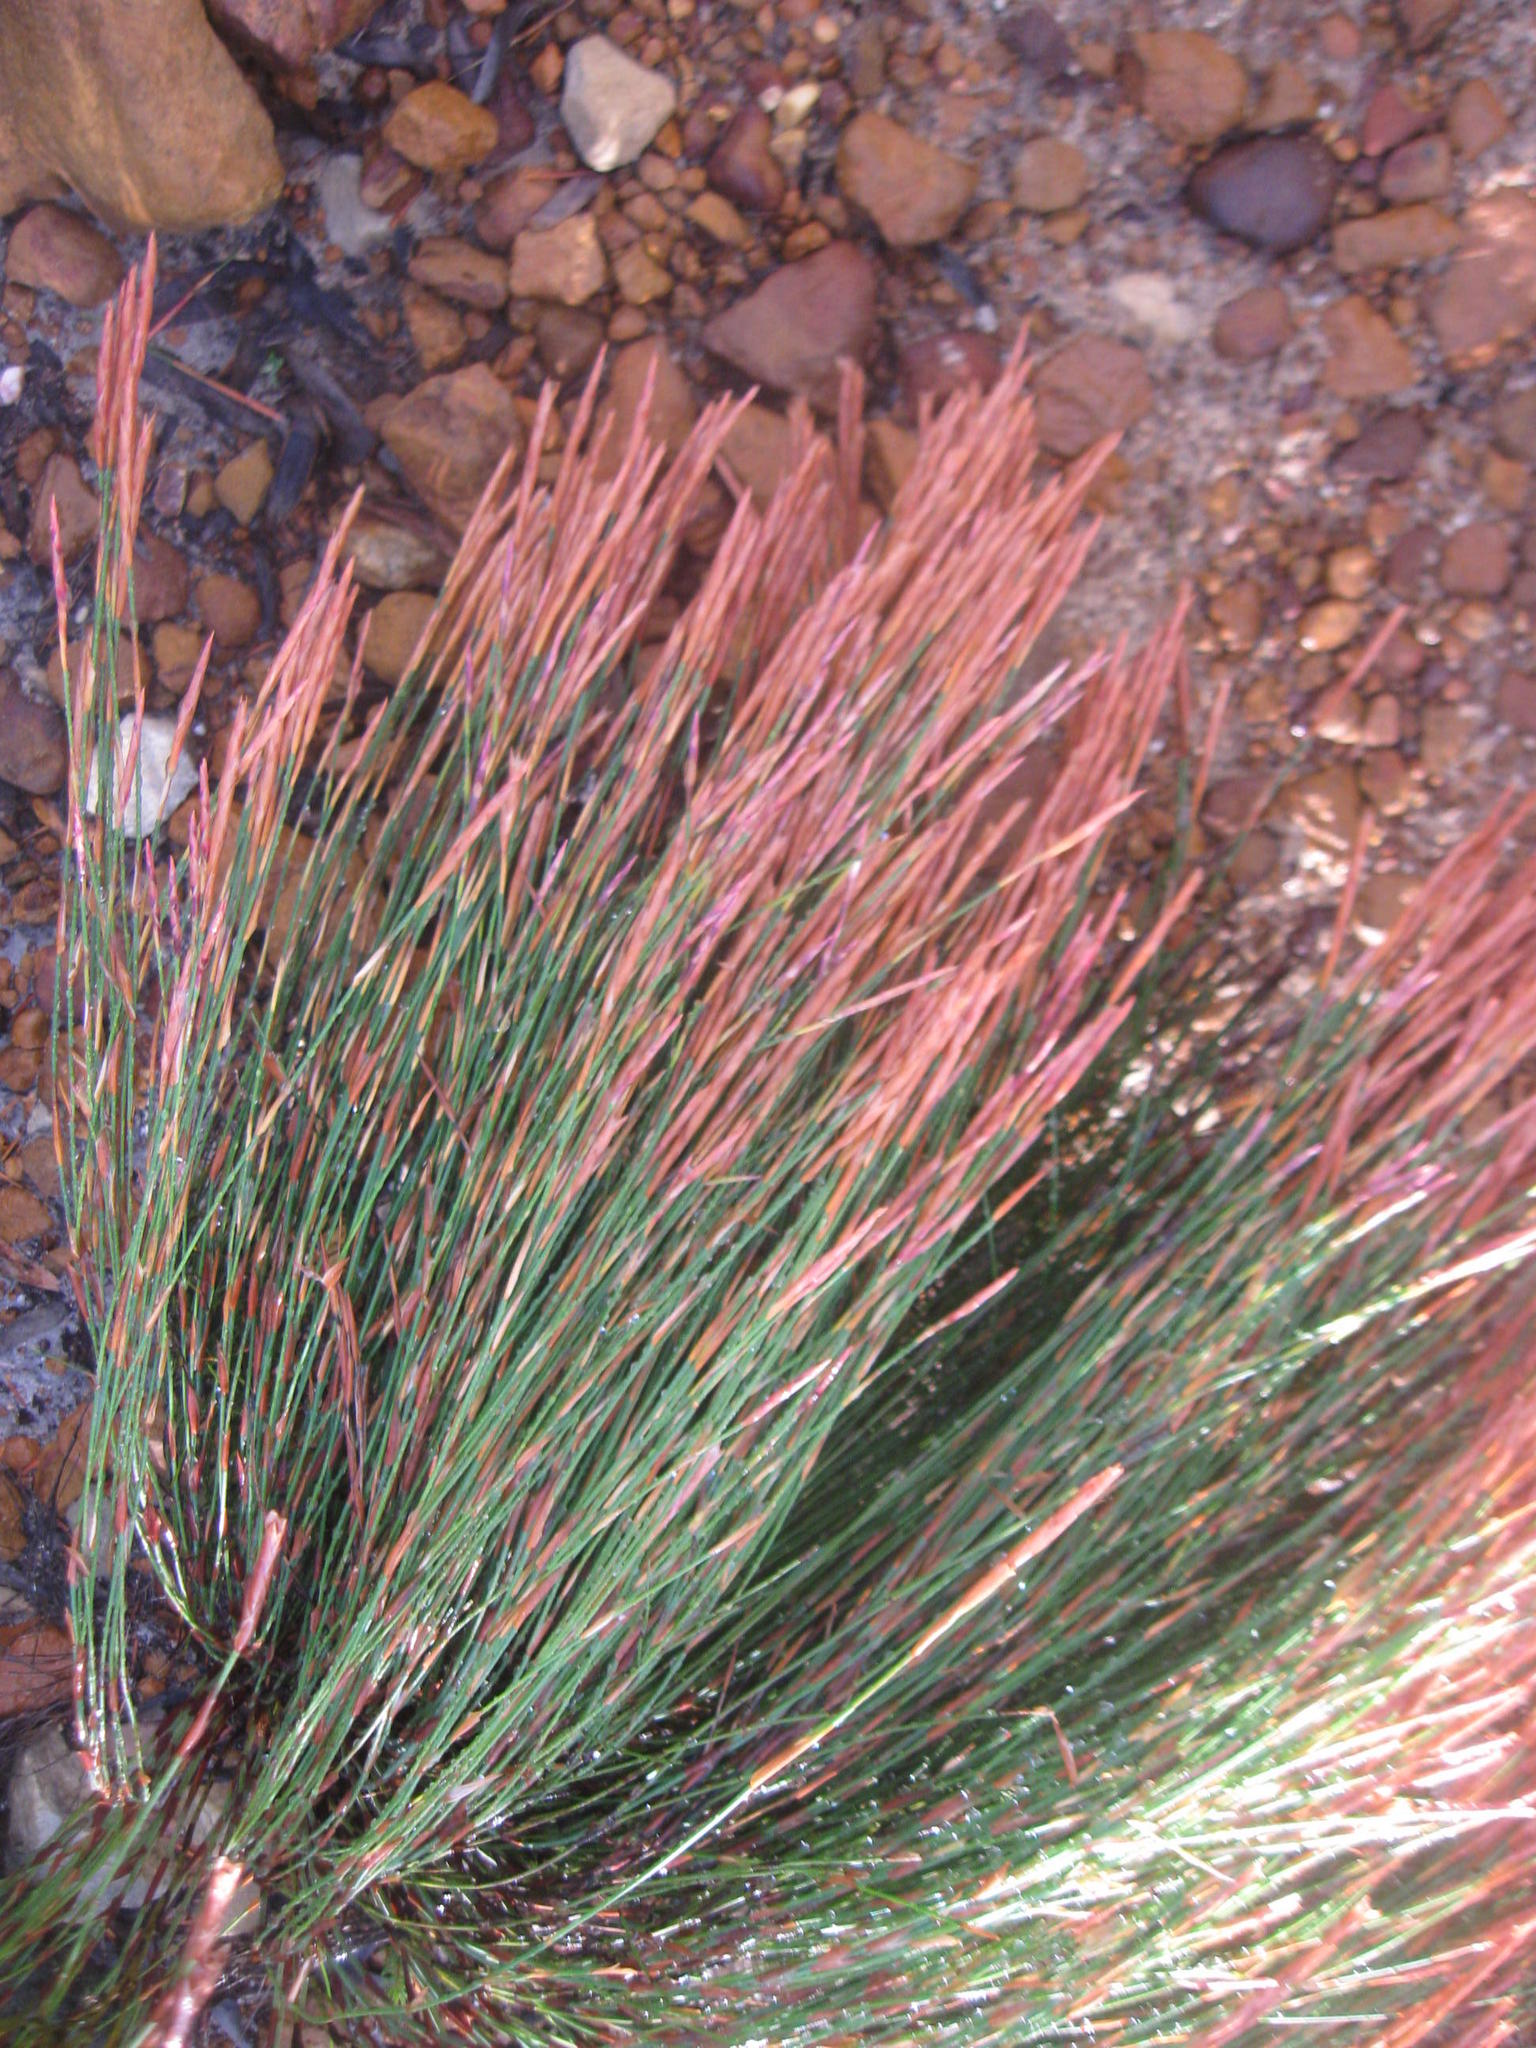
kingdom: Plantae
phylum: Tracheophyta
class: Liliopsida
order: Poales
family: Restionaceae
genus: Elegia
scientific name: Elegia stipularis
